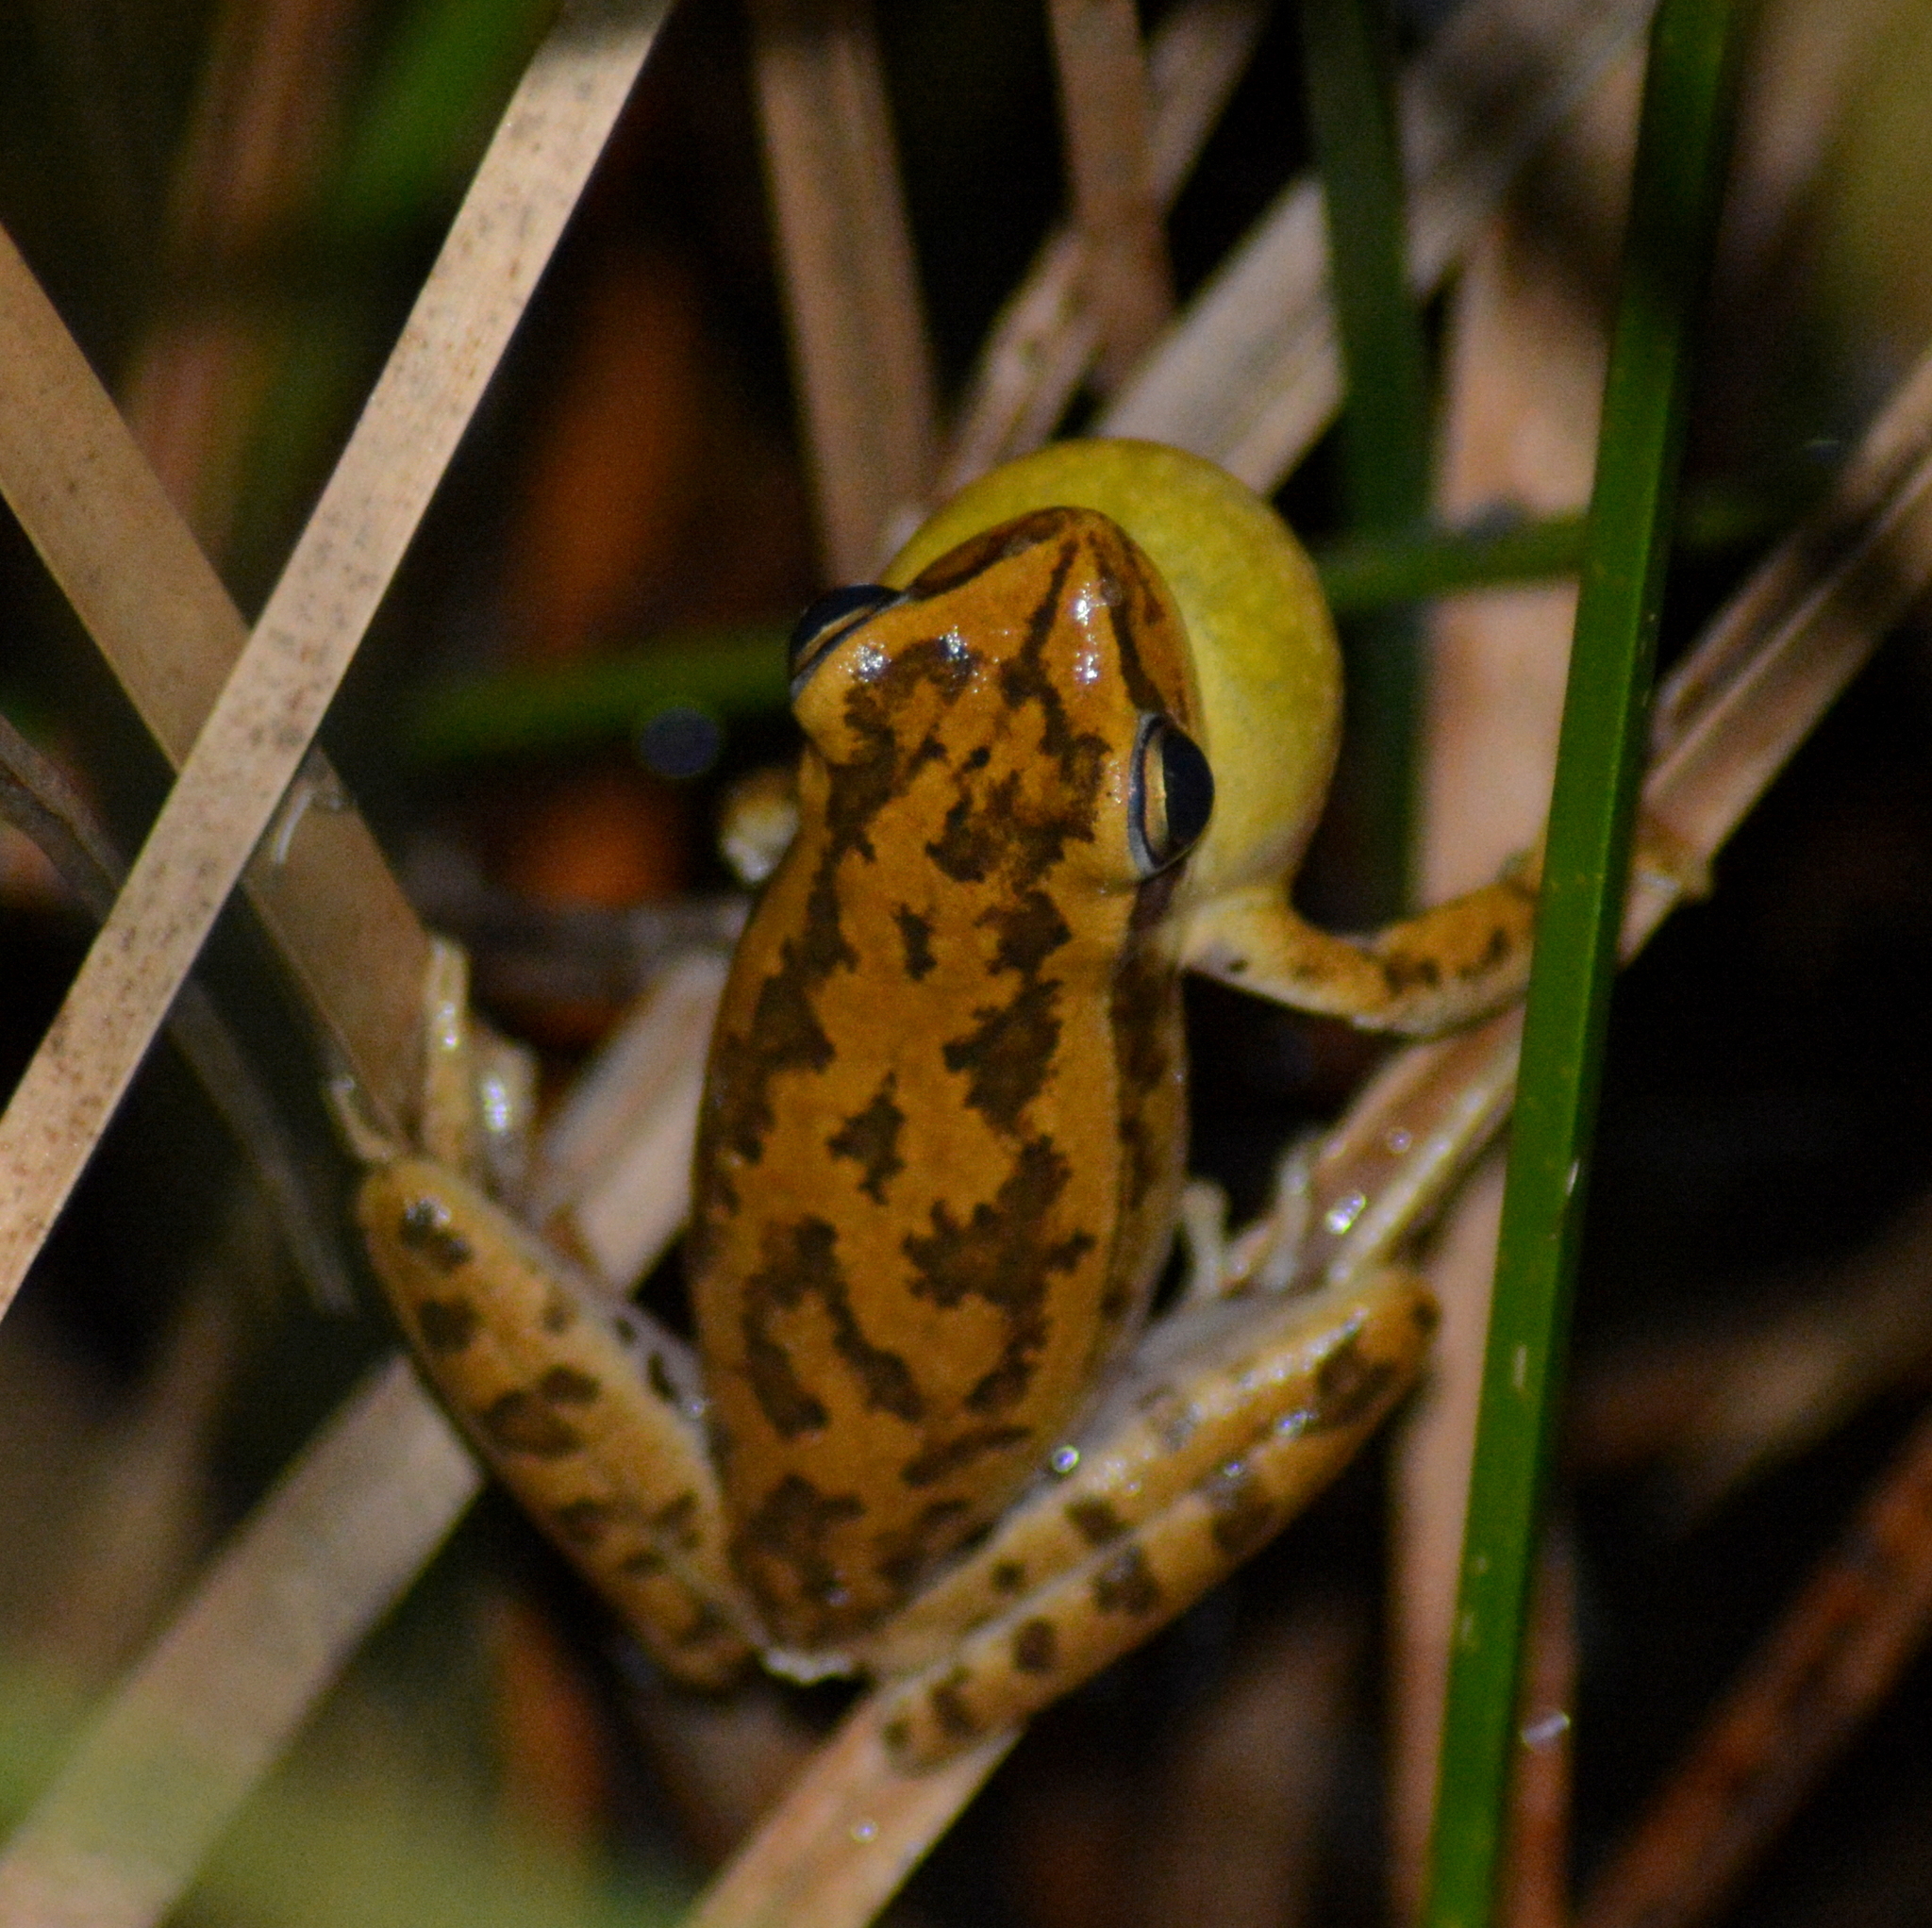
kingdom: Animalia
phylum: Chordata
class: Amphibia
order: Anura
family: Hylidae
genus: Boana
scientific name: Boana pulchella
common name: Montevideo treefrog
